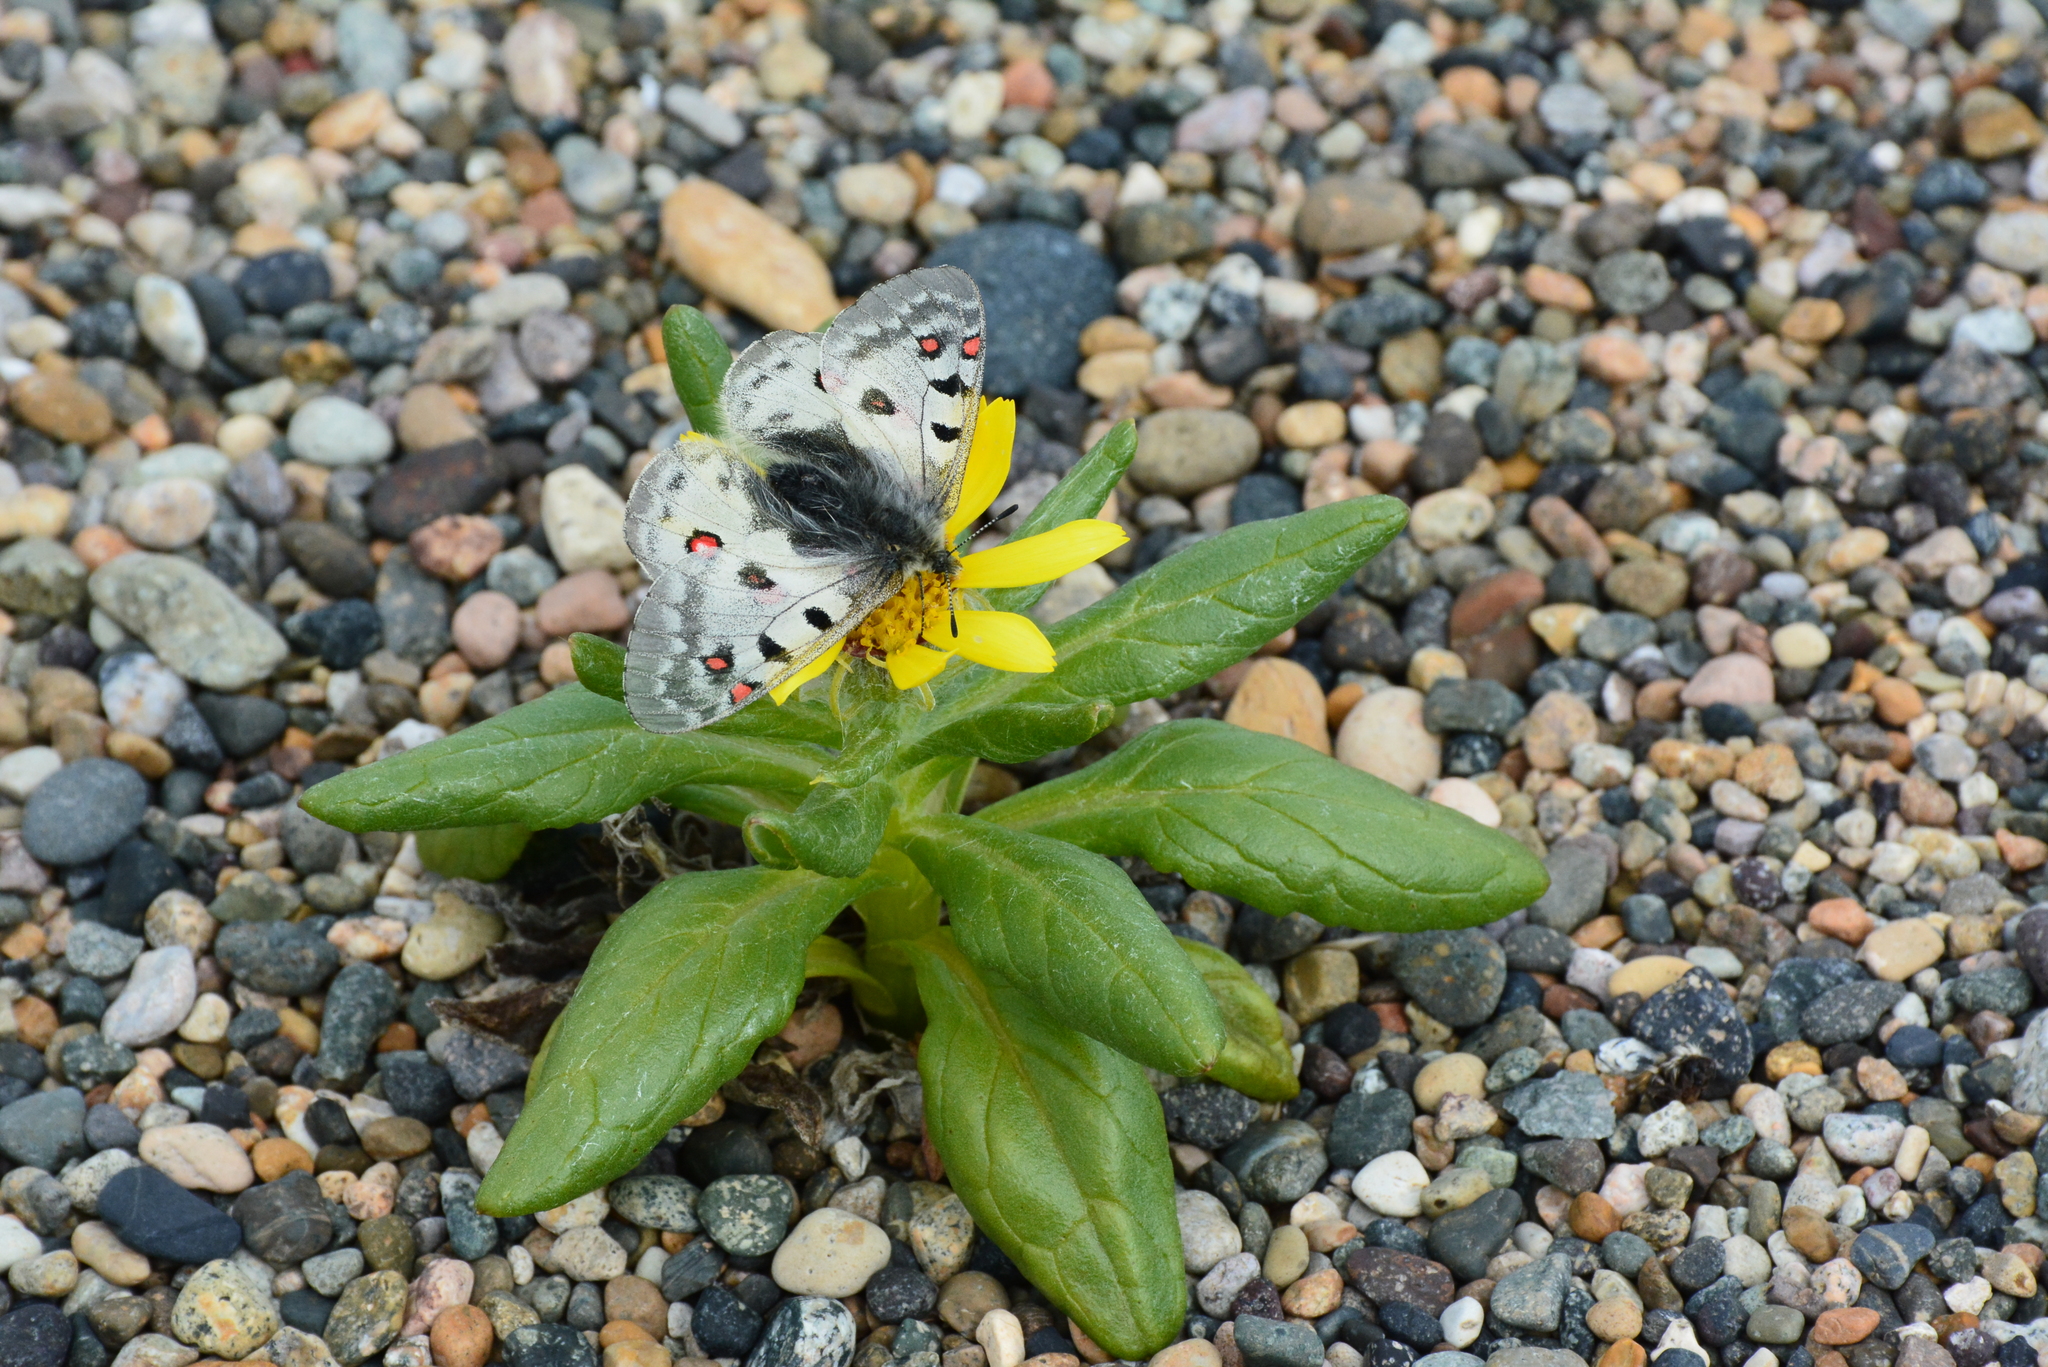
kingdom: Animalia
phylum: Arthropoda
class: Insecta
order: Lepidoptera
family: Papilionidae
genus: Parnassius
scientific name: Parnassius phoebus
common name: Small apollo
